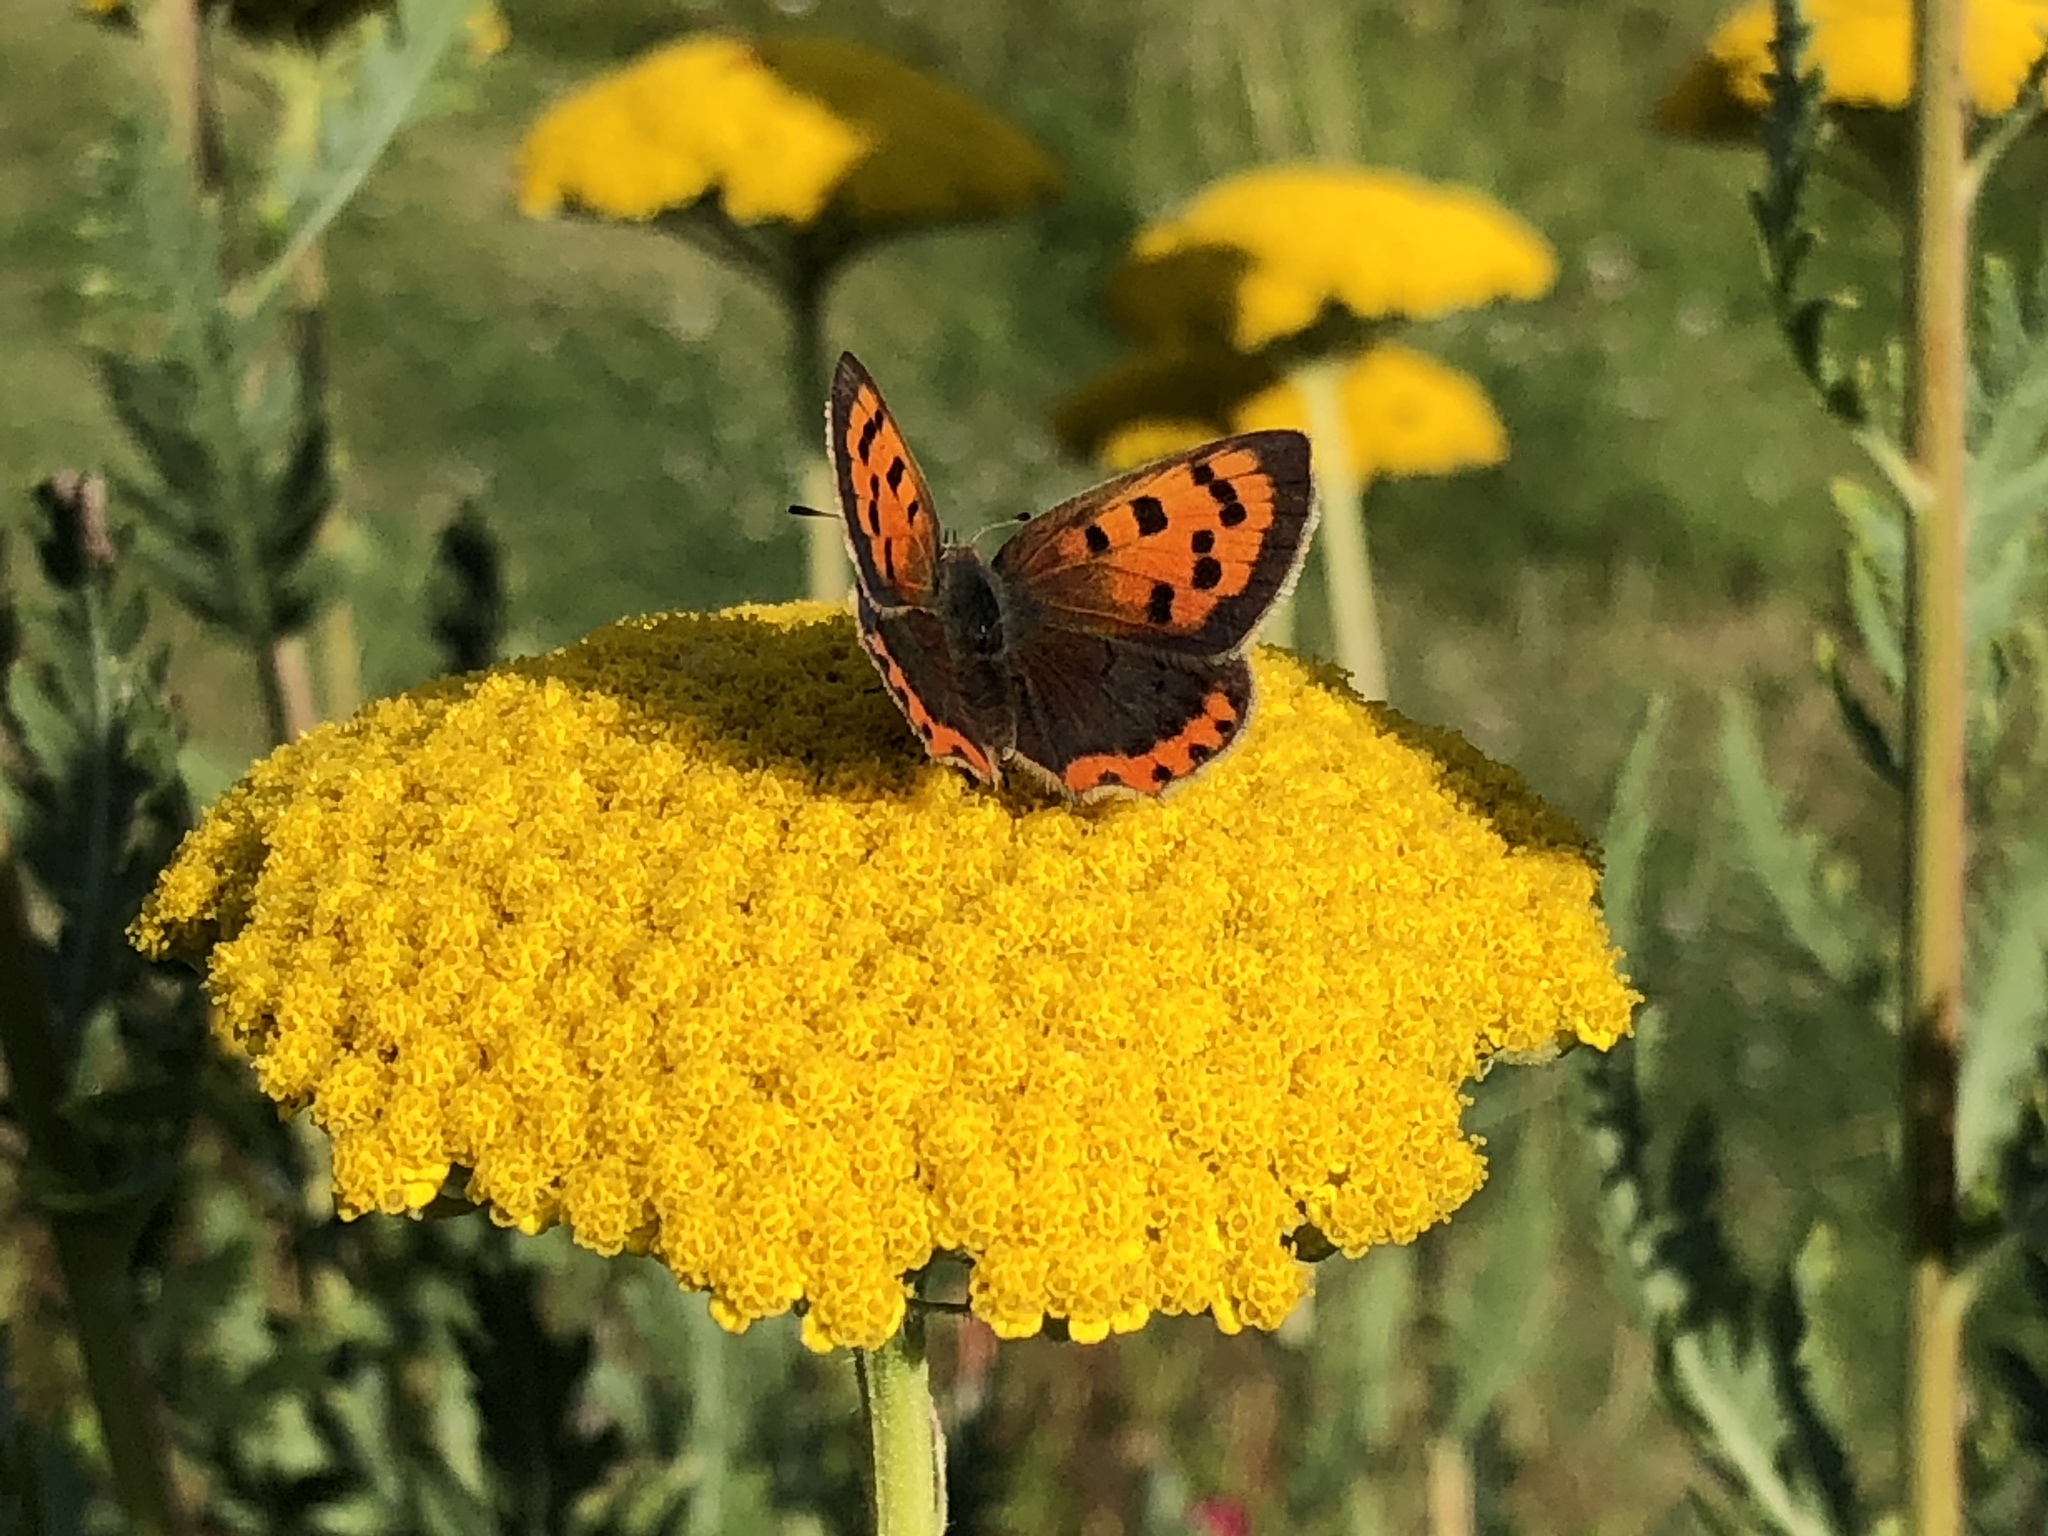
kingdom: Animalia
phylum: Arthropoda
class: Insecta
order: Lepidoptera
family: Lycaenidae
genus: Lycaena
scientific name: Lycaena phlaeas
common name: Small copper
